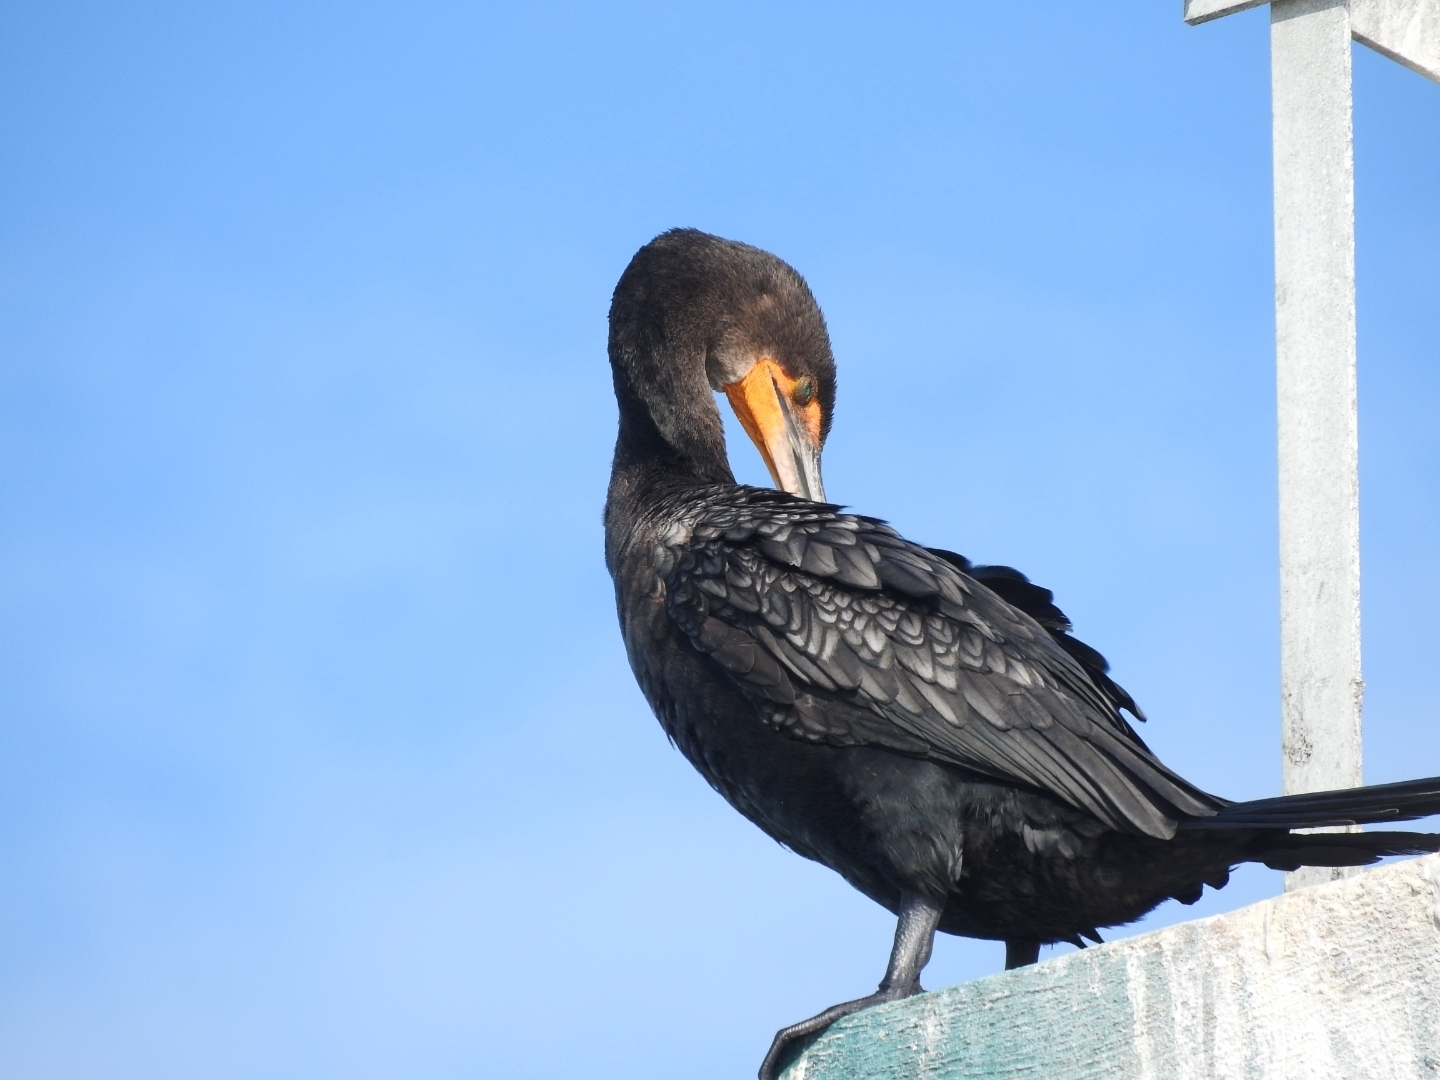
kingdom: Animalia
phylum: Chordata
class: Aves
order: Suliformes
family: Phalacrocoracidae
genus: Phalacrocorax
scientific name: Phalacrocorax auritus
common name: Double-crested cormorant
